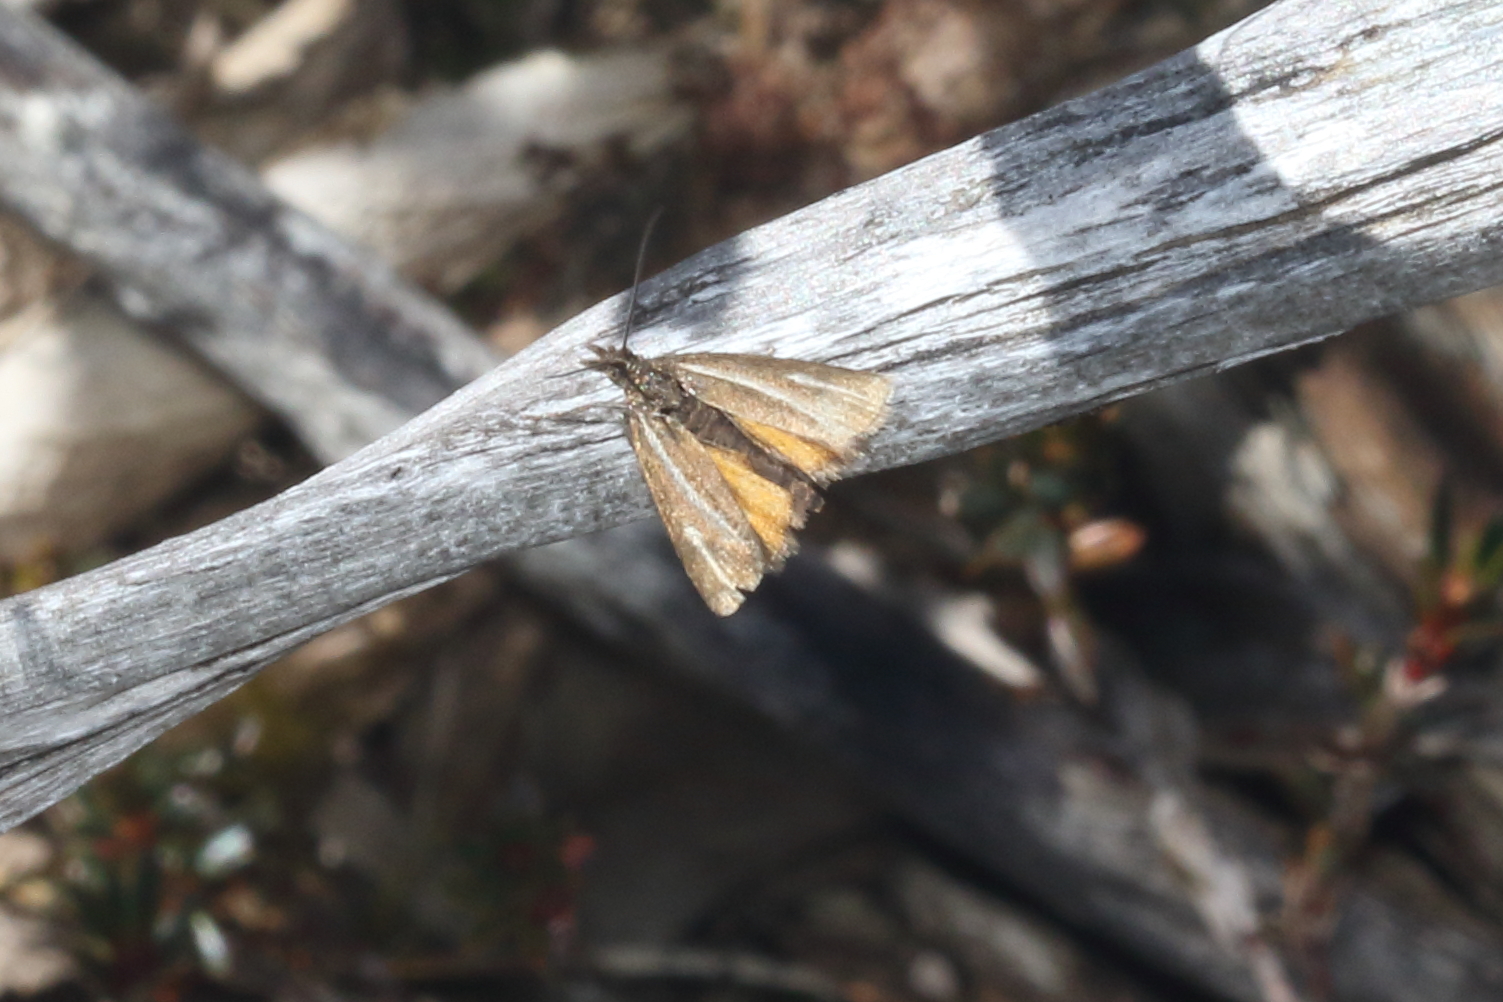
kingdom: Animalia
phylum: Arthropoda
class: Insecta
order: Lepidoptera
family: Crambidae
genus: Orocrambus
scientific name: Orocrambus heliotes
